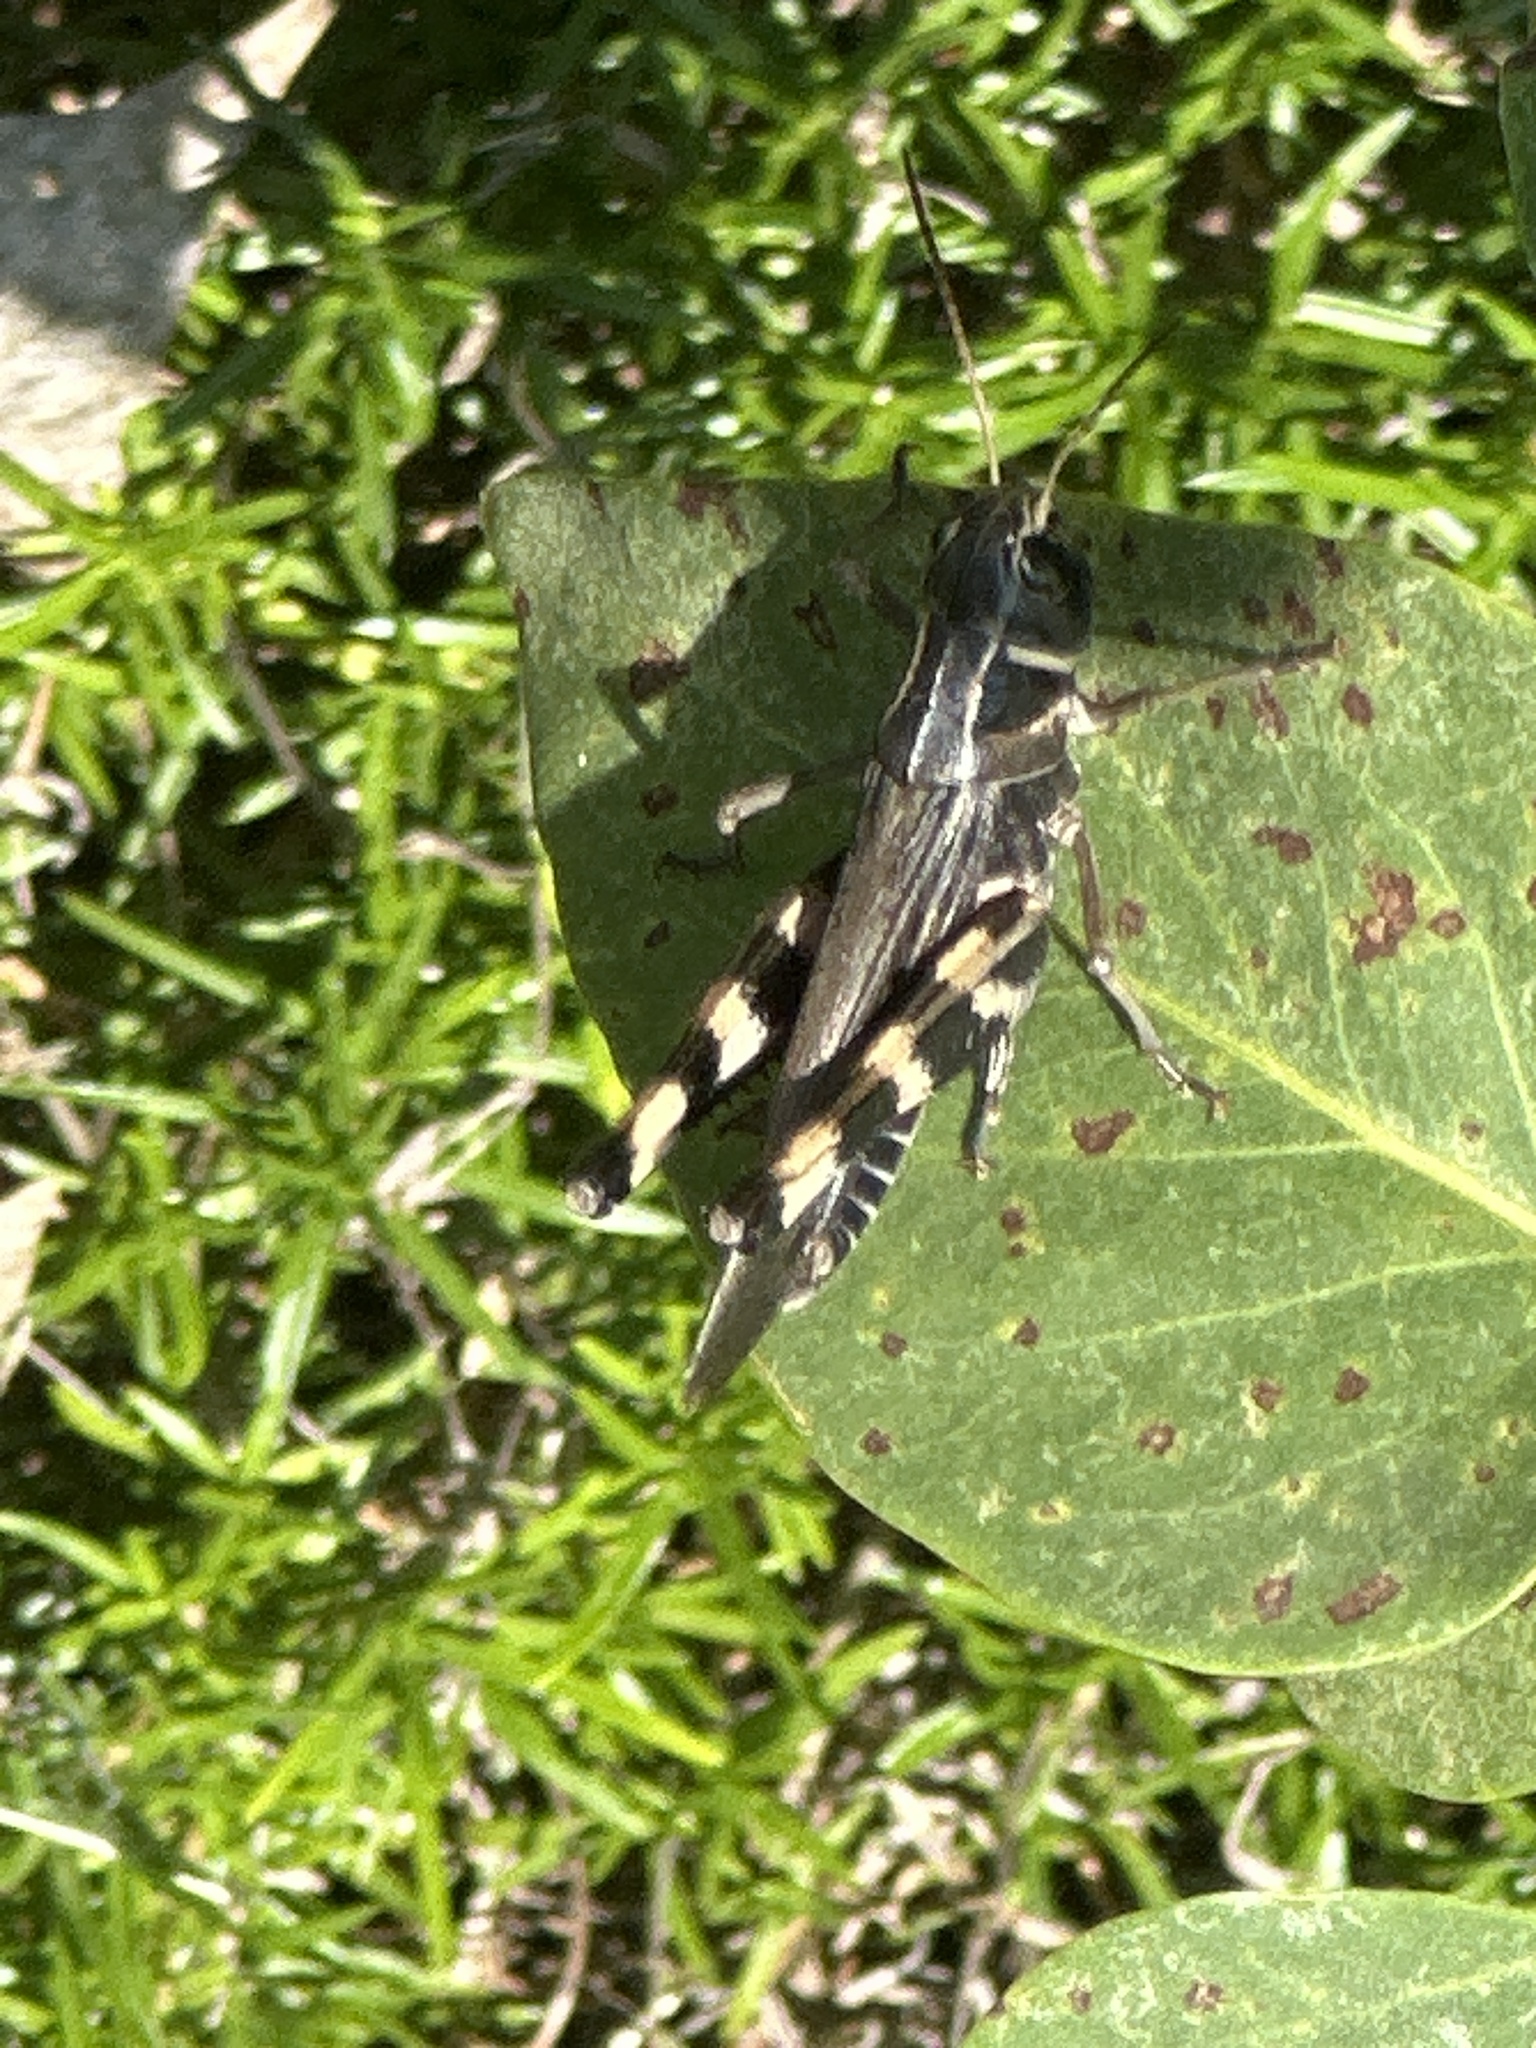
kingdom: Animalia
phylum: Arthropoda
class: Insecta
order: Orthoptera
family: Acrididae
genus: Boopedon
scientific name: Boopedon gracile
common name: Graceful range grasshopper
